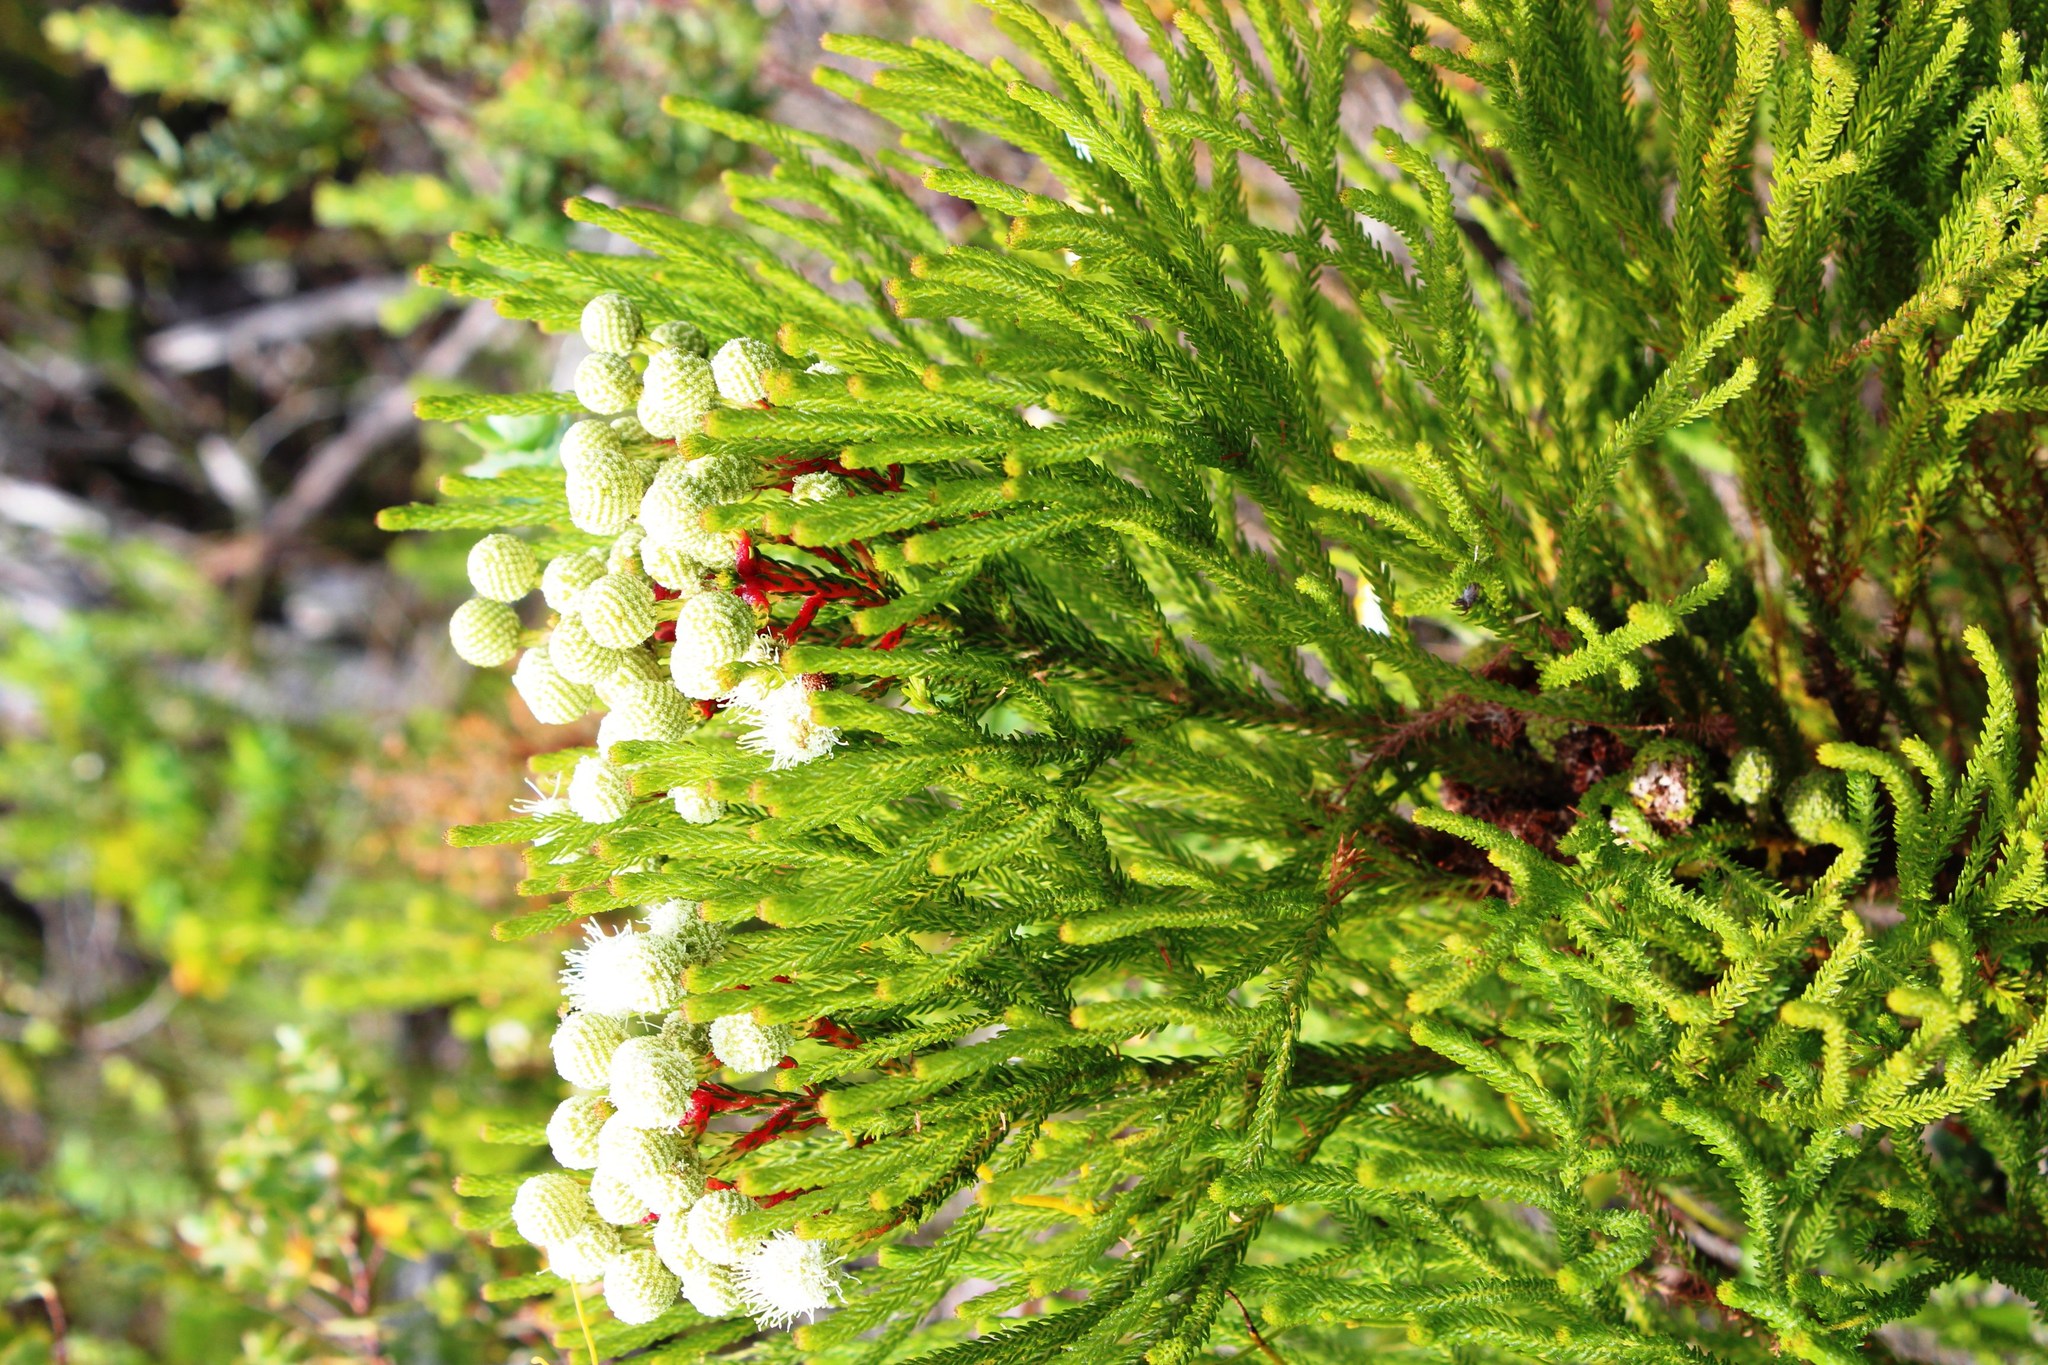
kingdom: Plantae
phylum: Tracheophyta
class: Magnoliopsida
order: Bruniales
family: Bruniaceae
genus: Berzelia
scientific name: Berzelia intermedia
